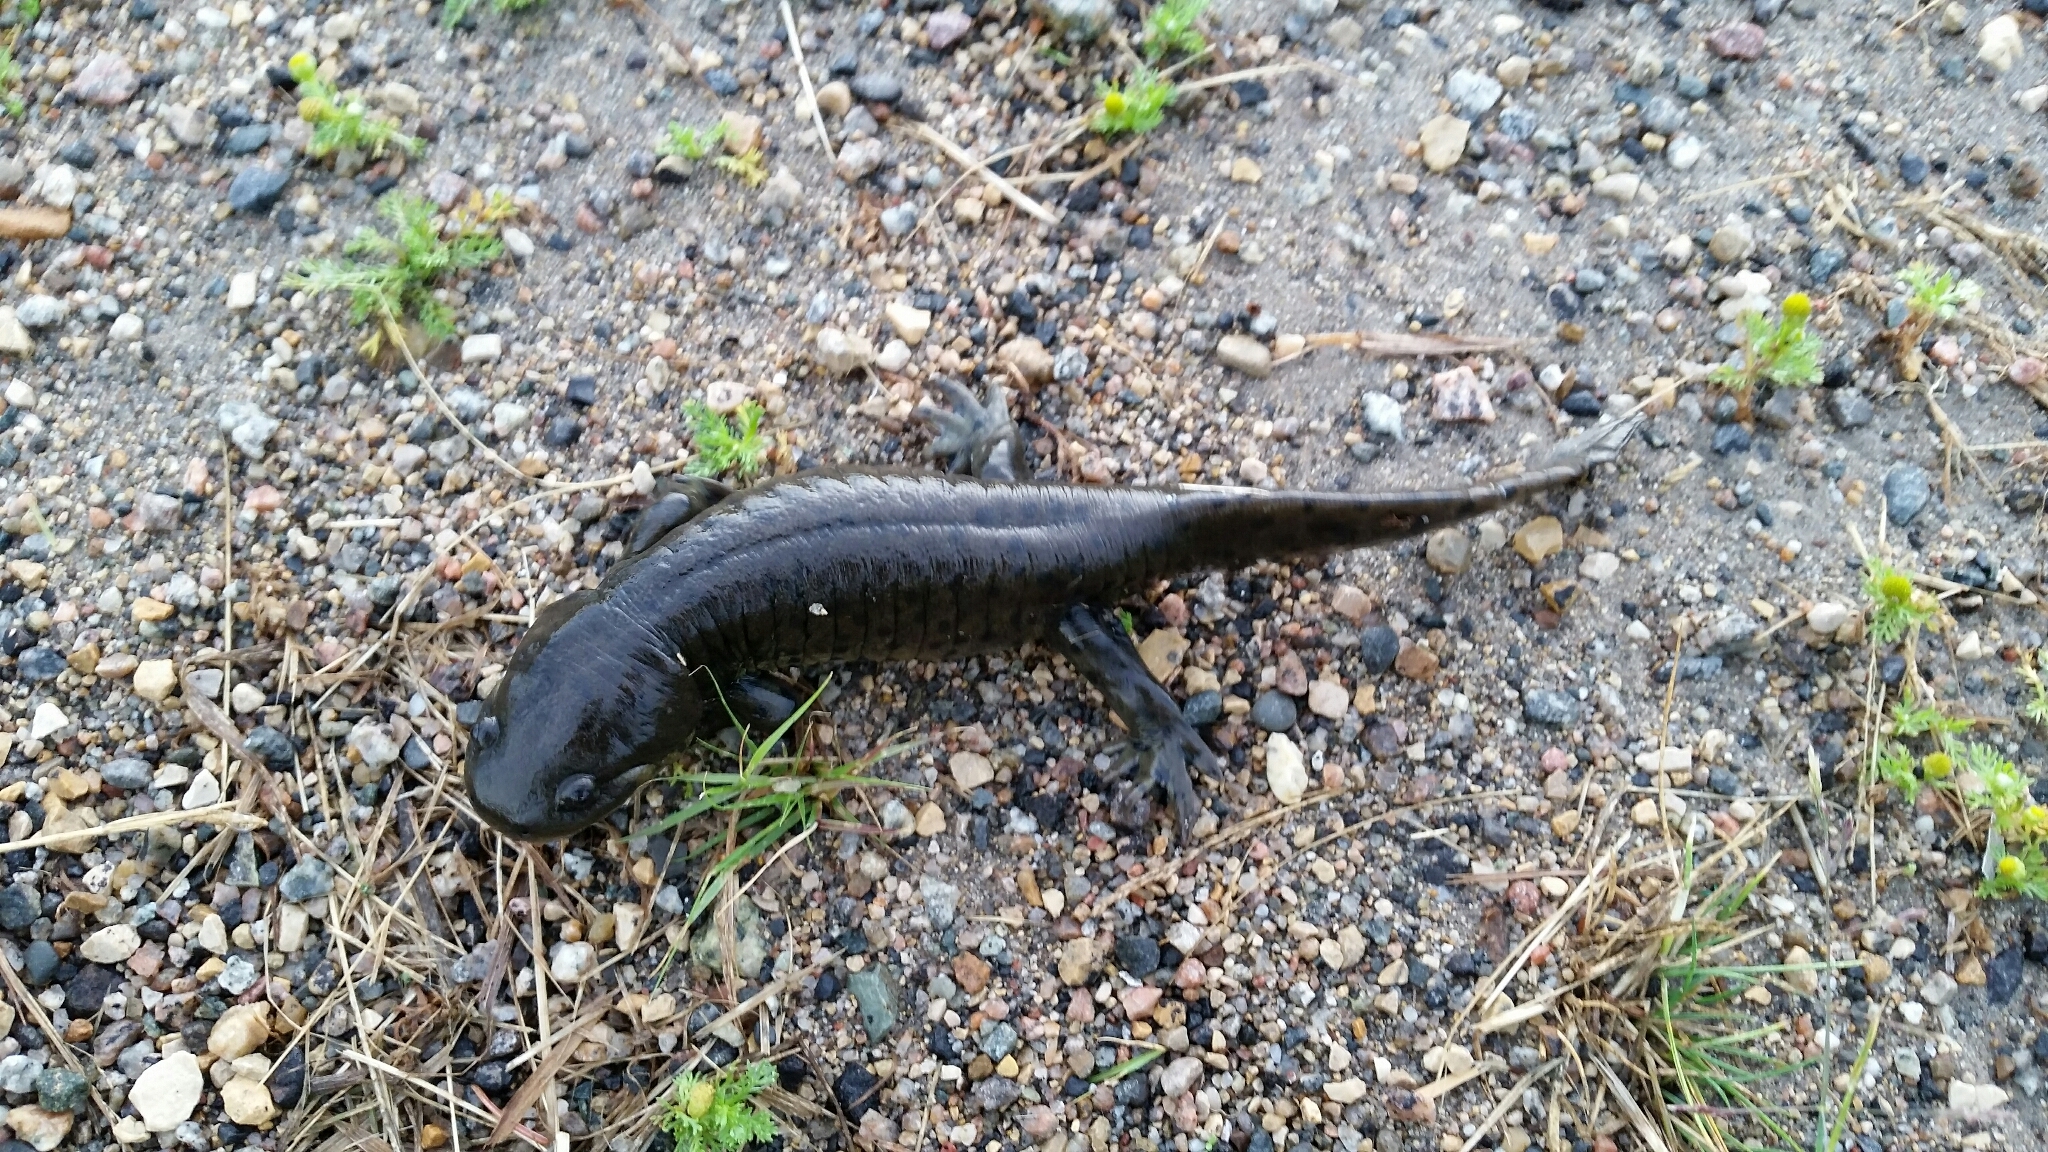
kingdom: Animalia
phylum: Chordata
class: Amphibia
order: Caudata
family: Ambystomatidae
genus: Ambystoma
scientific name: Ambystoma mavortium
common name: Western tiger salamander
